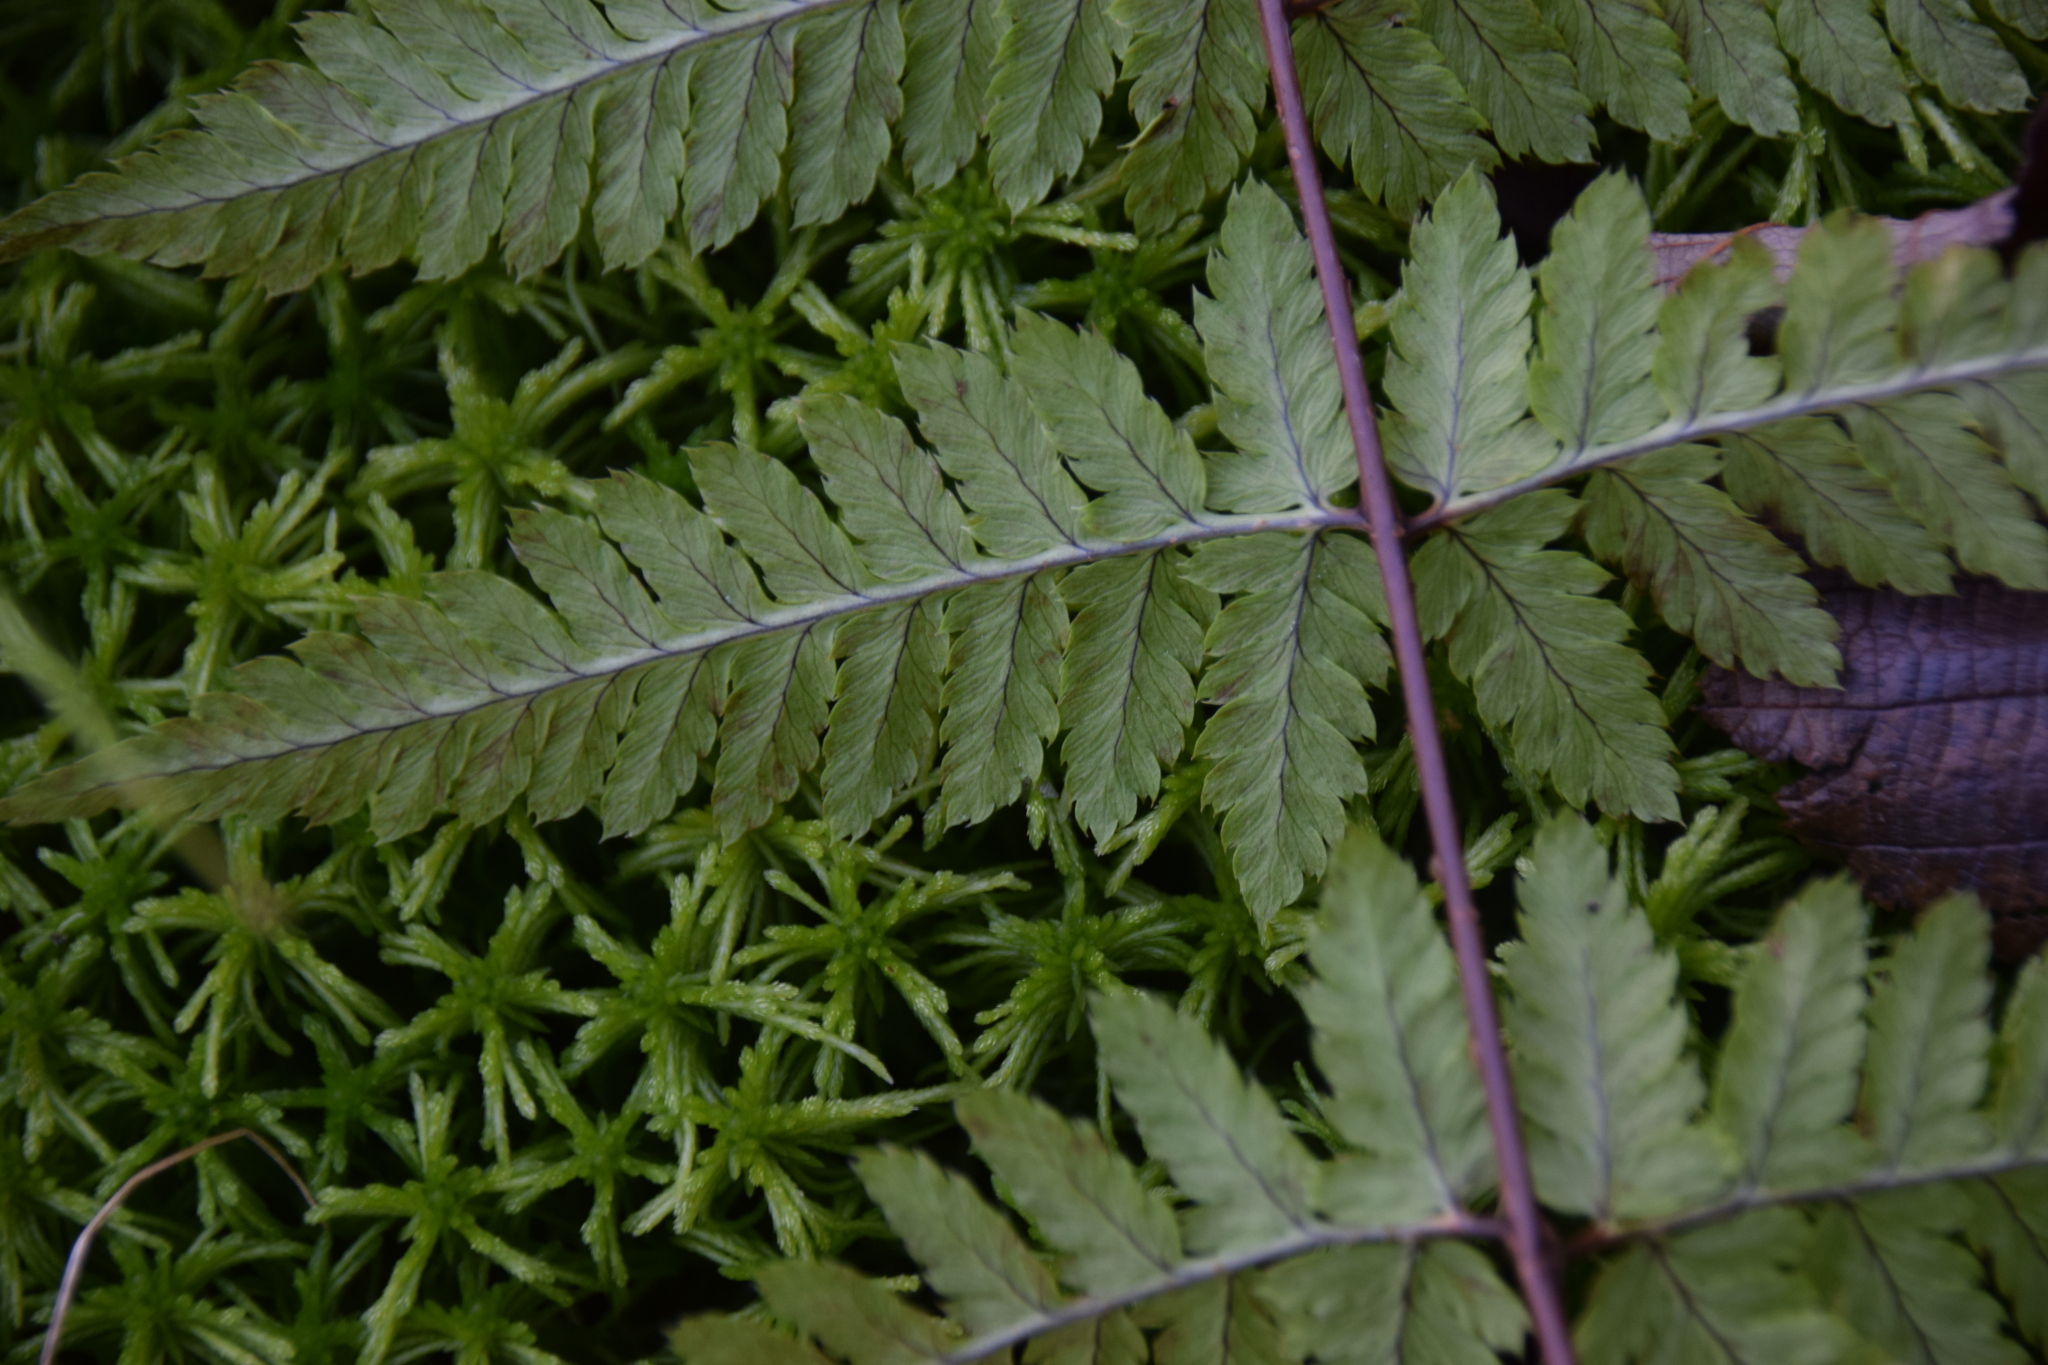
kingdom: Plantae
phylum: Tracheophyta
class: Polypodiopsida
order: Polypodiales
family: Dryopteridaceae
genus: Dryopteris
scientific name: Dryopteris carthusiana
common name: Narrow buckler-fern
